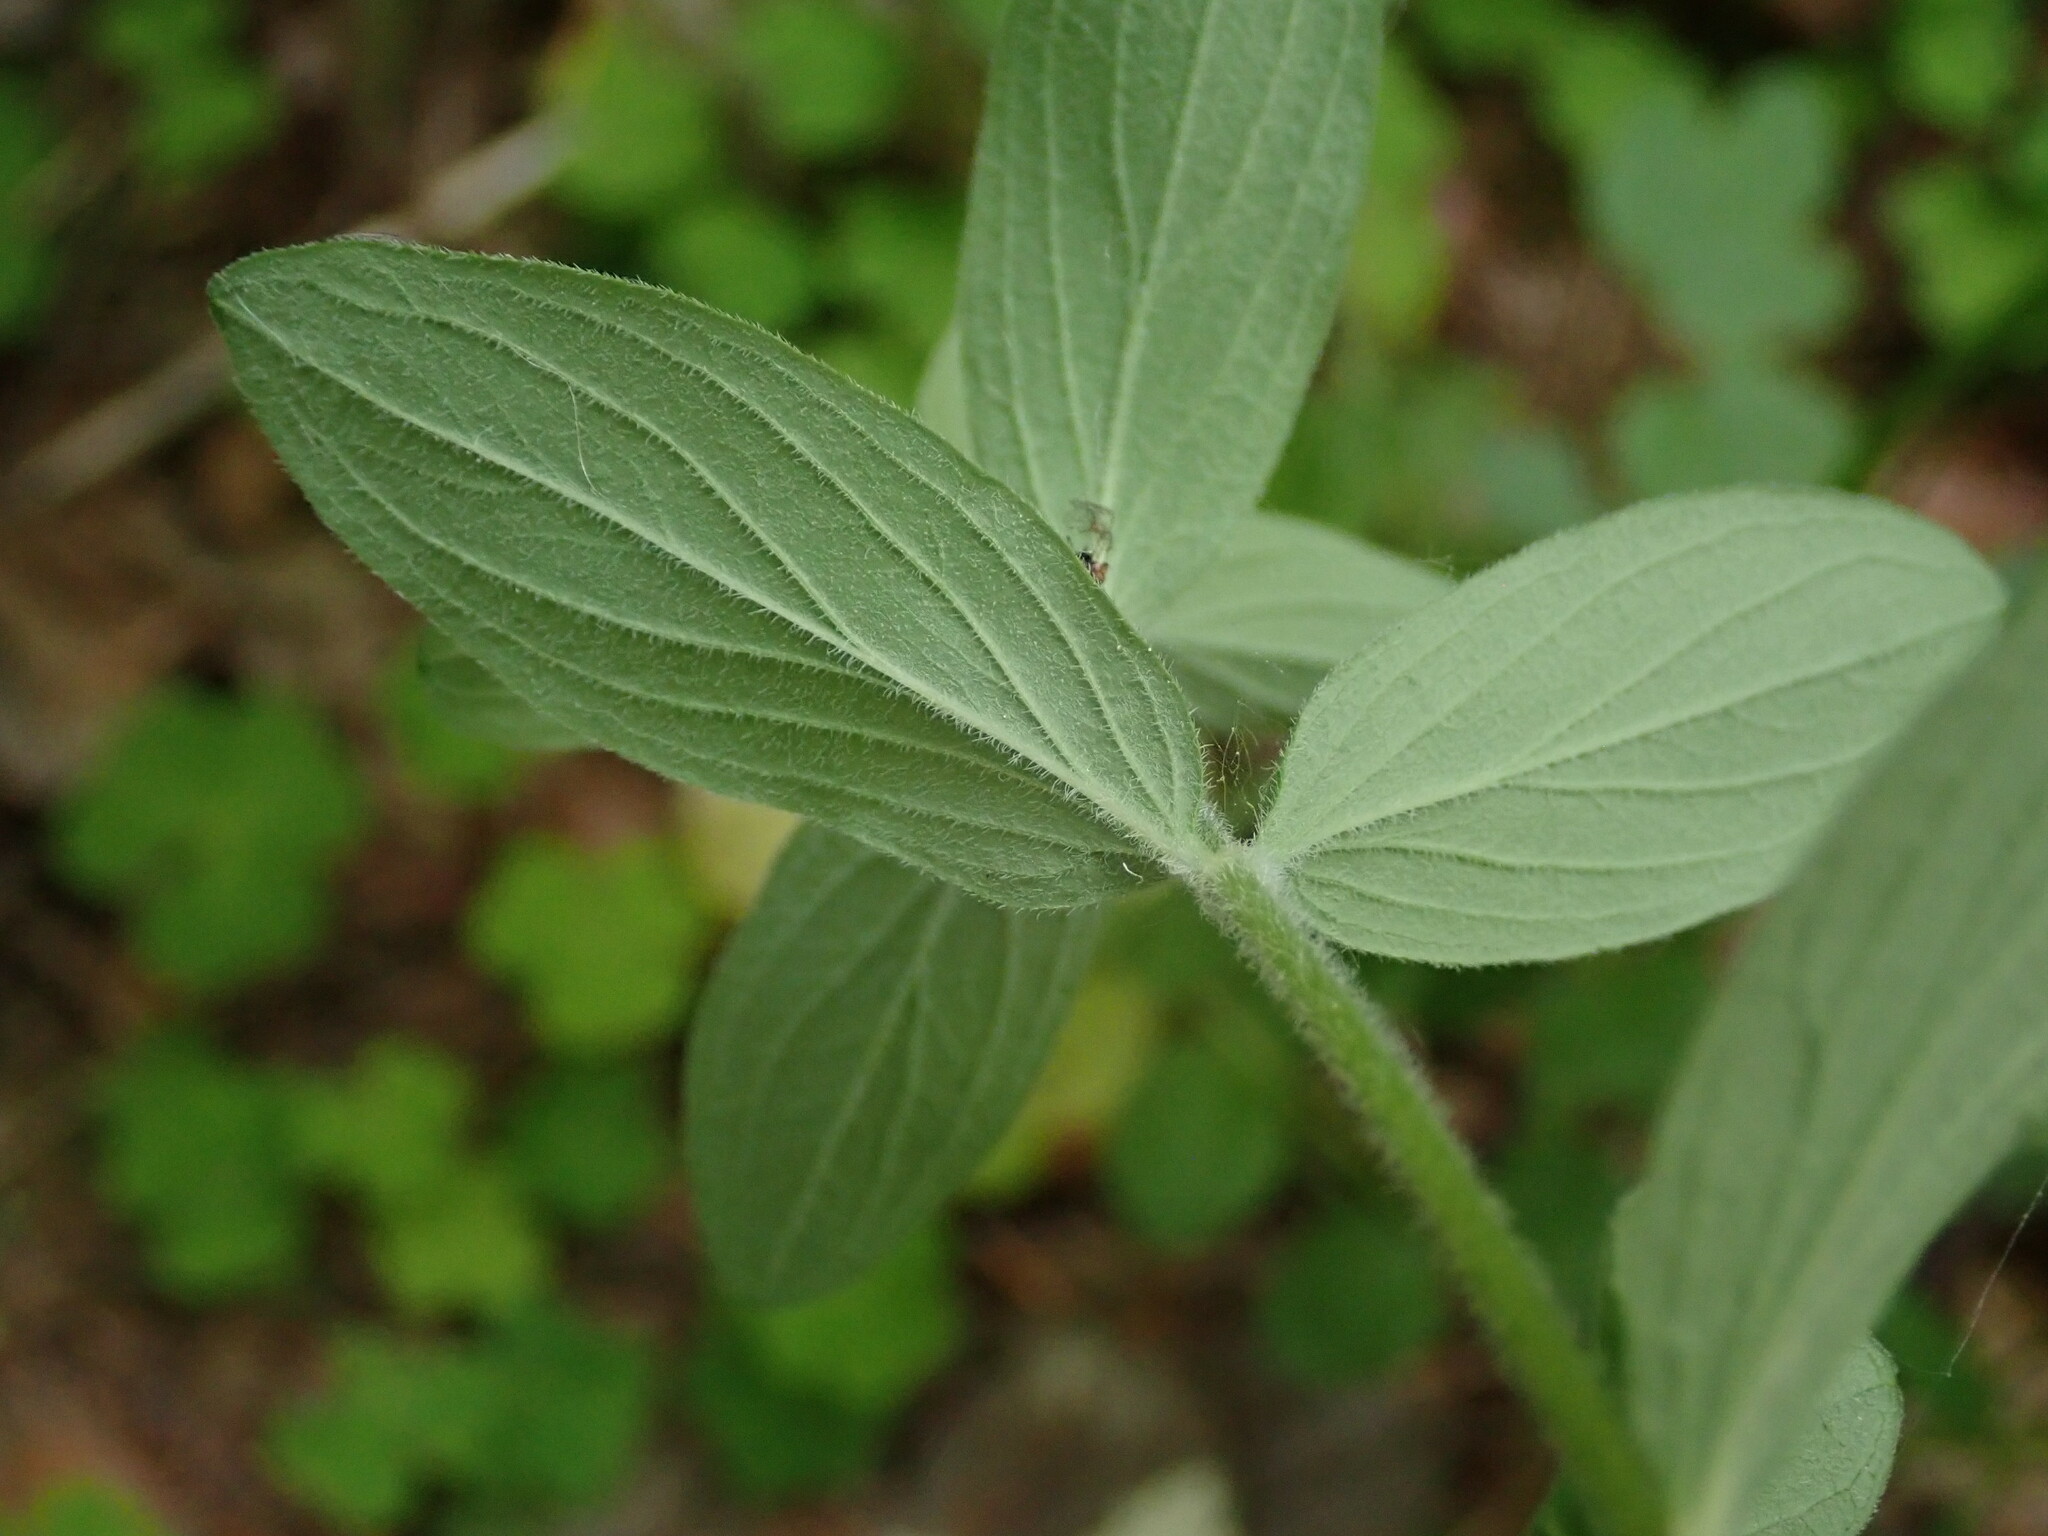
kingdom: Plantae
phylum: Tracheophyta
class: Magnoliopsida
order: Malpighiales
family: Hypericaceae
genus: Hypericum
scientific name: Hypericum hirsutum
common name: Hairy st. john's-wort
